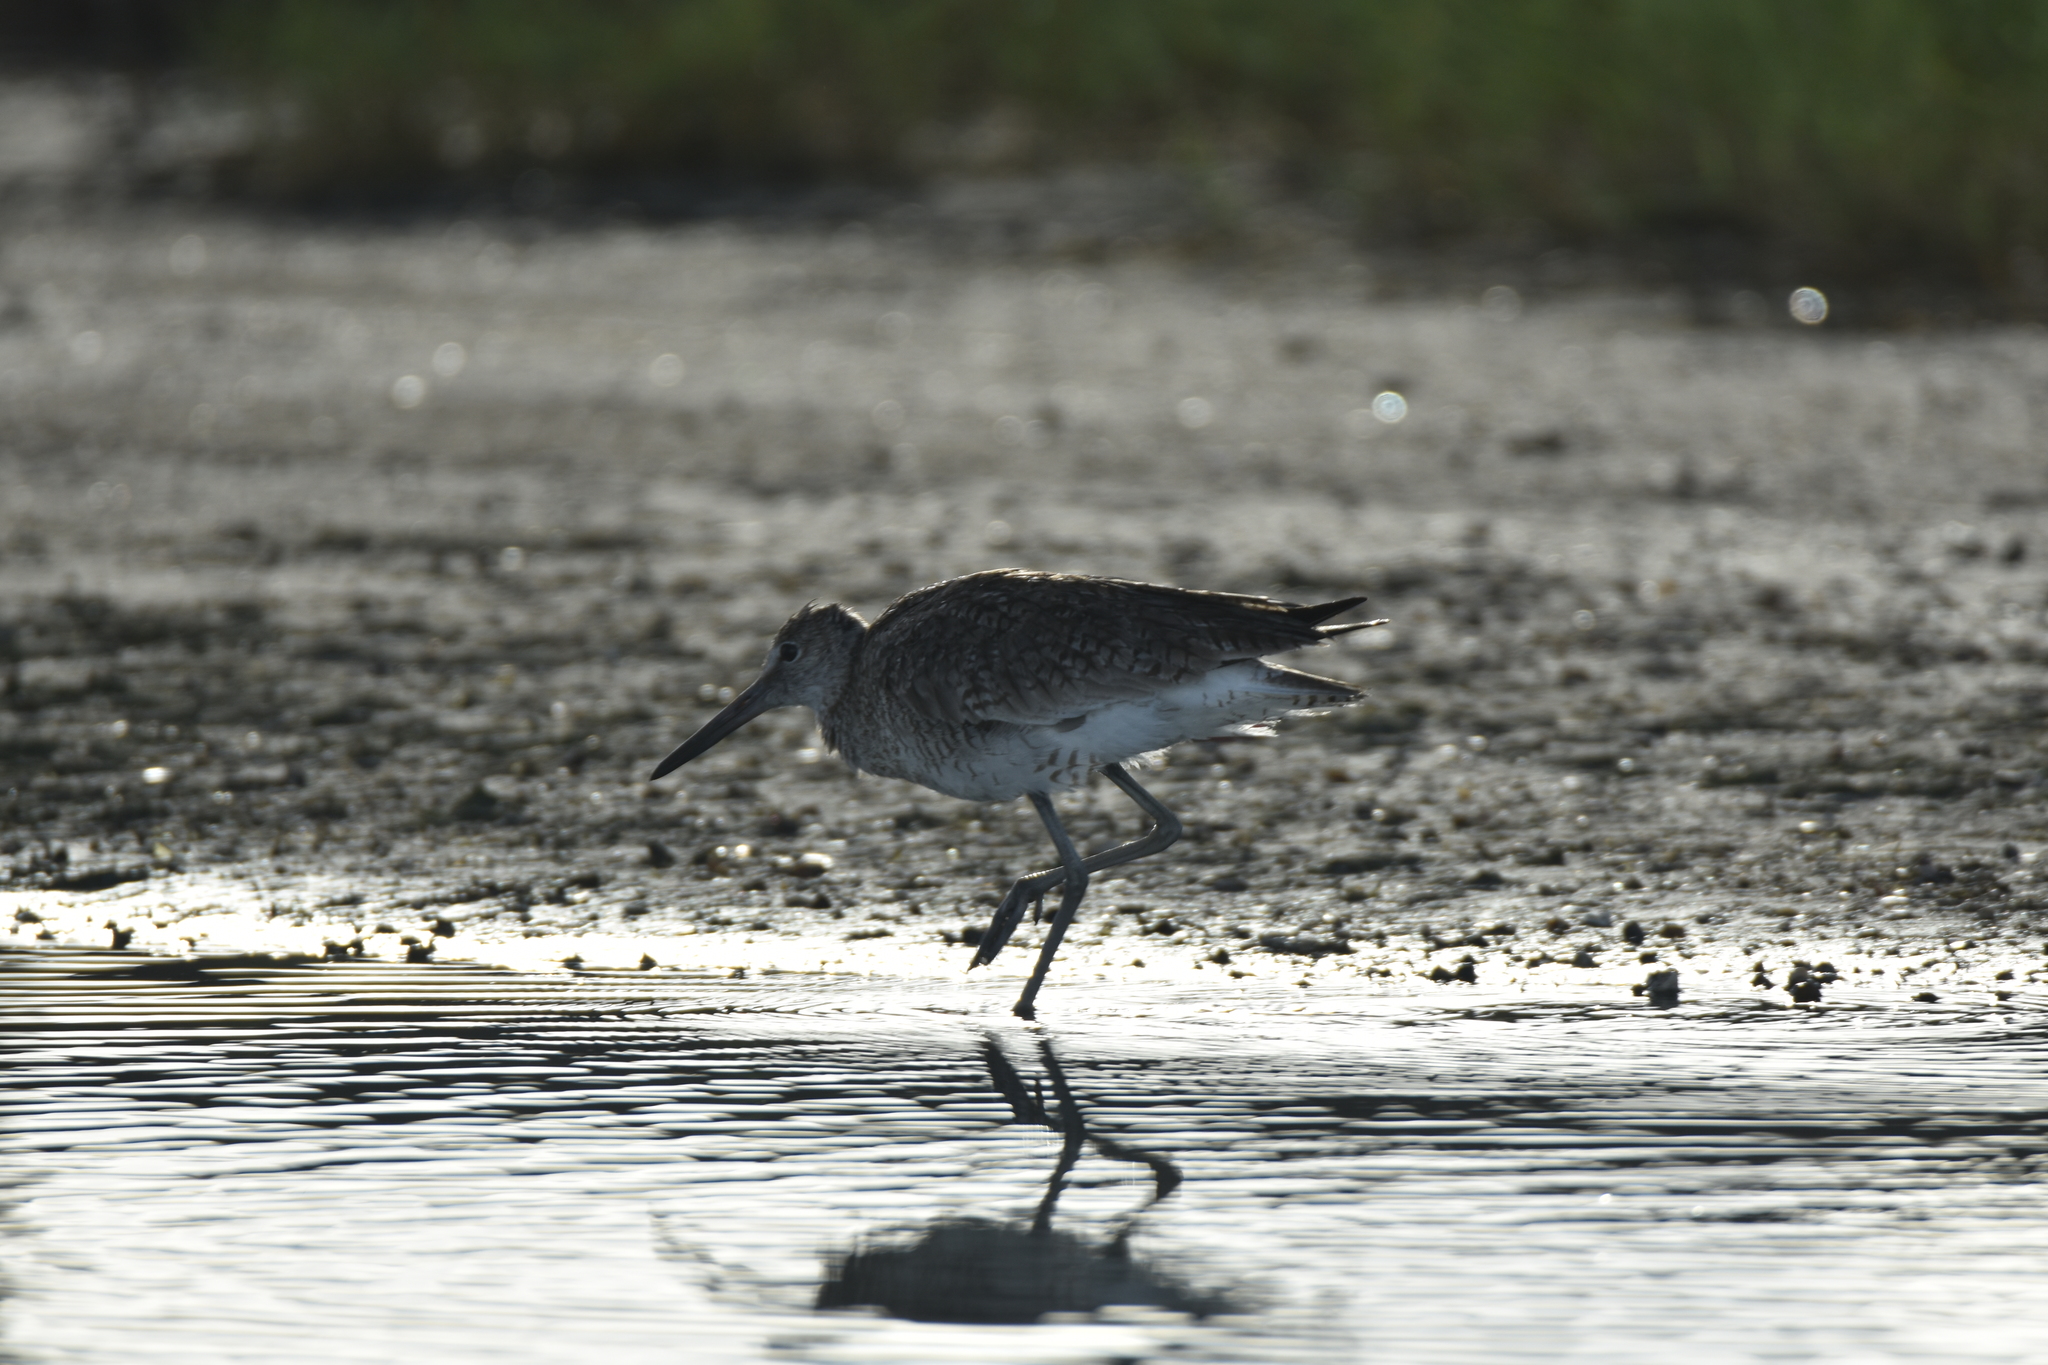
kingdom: Animalia
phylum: Chordata
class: Aves
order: Charadriiformes
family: Scolopacidae
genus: Tringa
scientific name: Tringa semipalmata
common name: Willet
